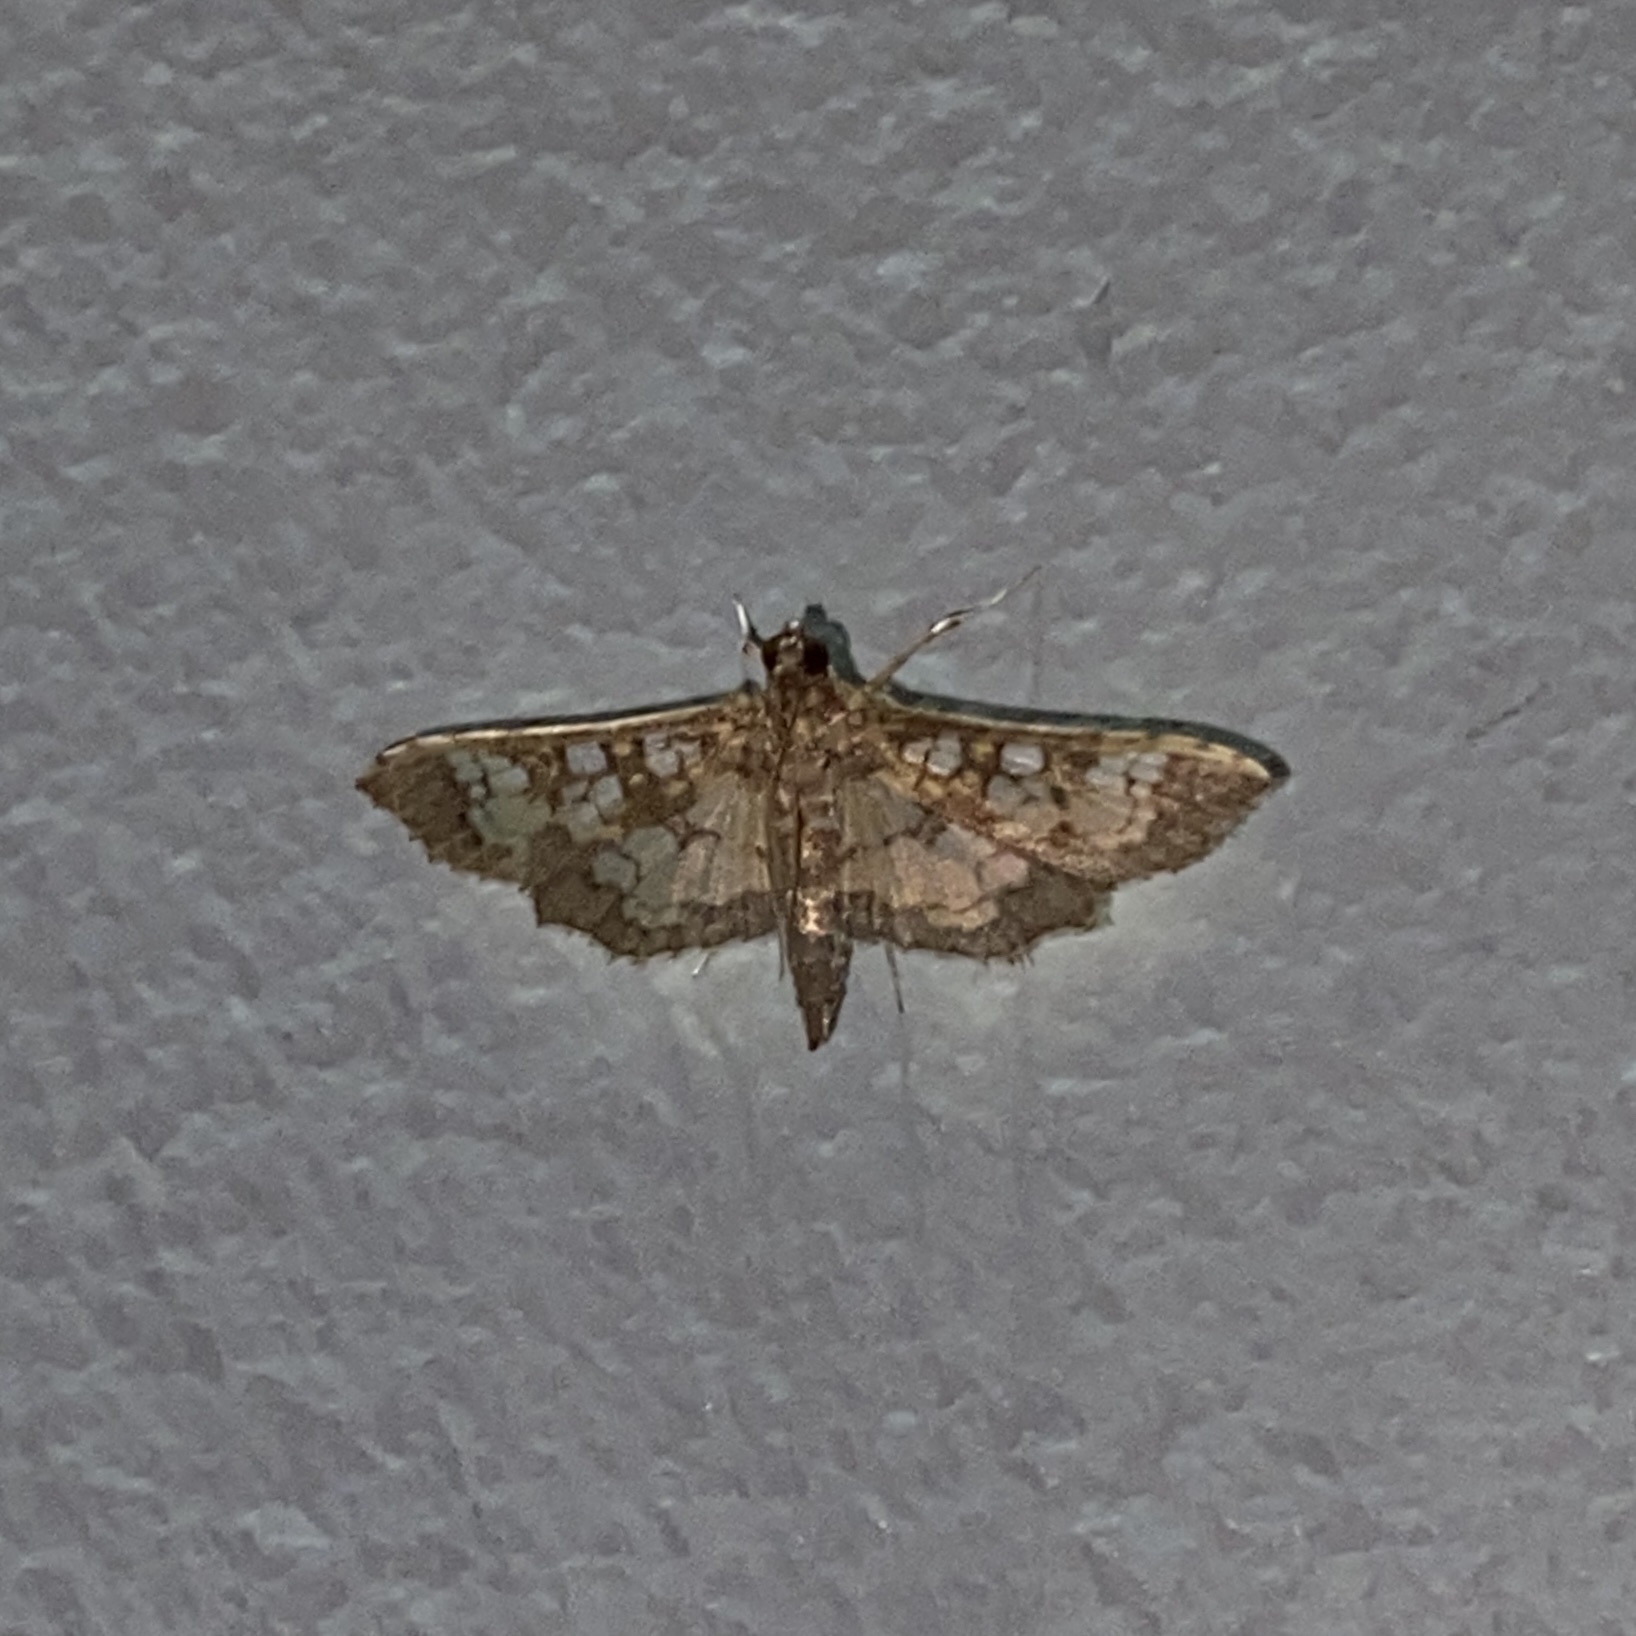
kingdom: Animalia
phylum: Arthropoda
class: Insecta
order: Lepidoptera
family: Crambidae
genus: Samea
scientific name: Samea ecclesialis
